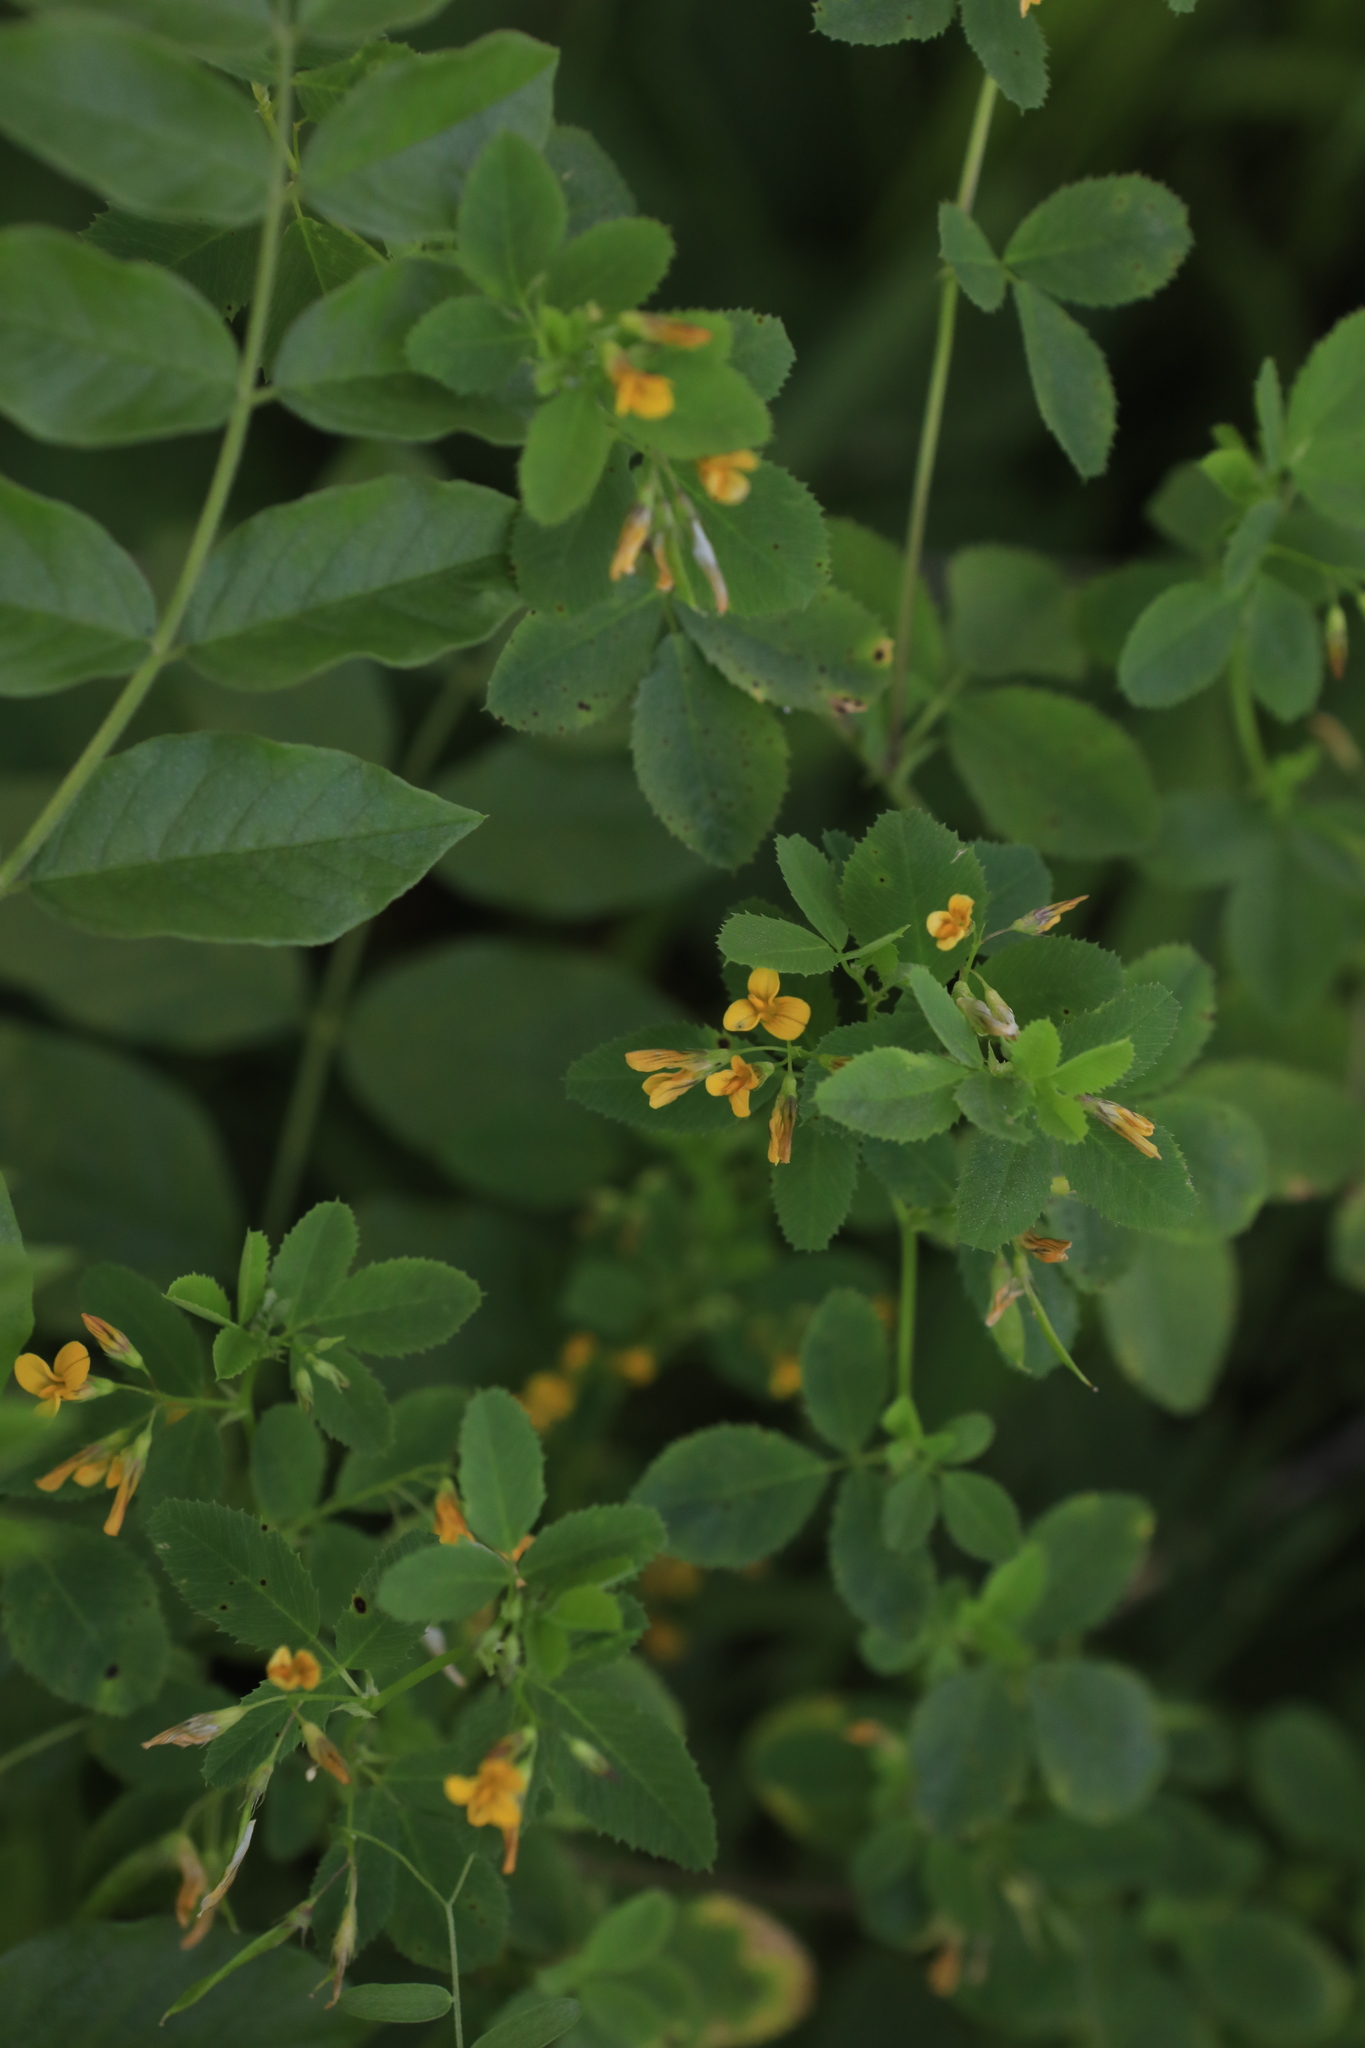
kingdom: Plantae
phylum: Tracheophyta
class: Magnoliopsida
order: Fabales
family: Fabaceae
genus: Medicago
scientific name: Medicago platycarpos
